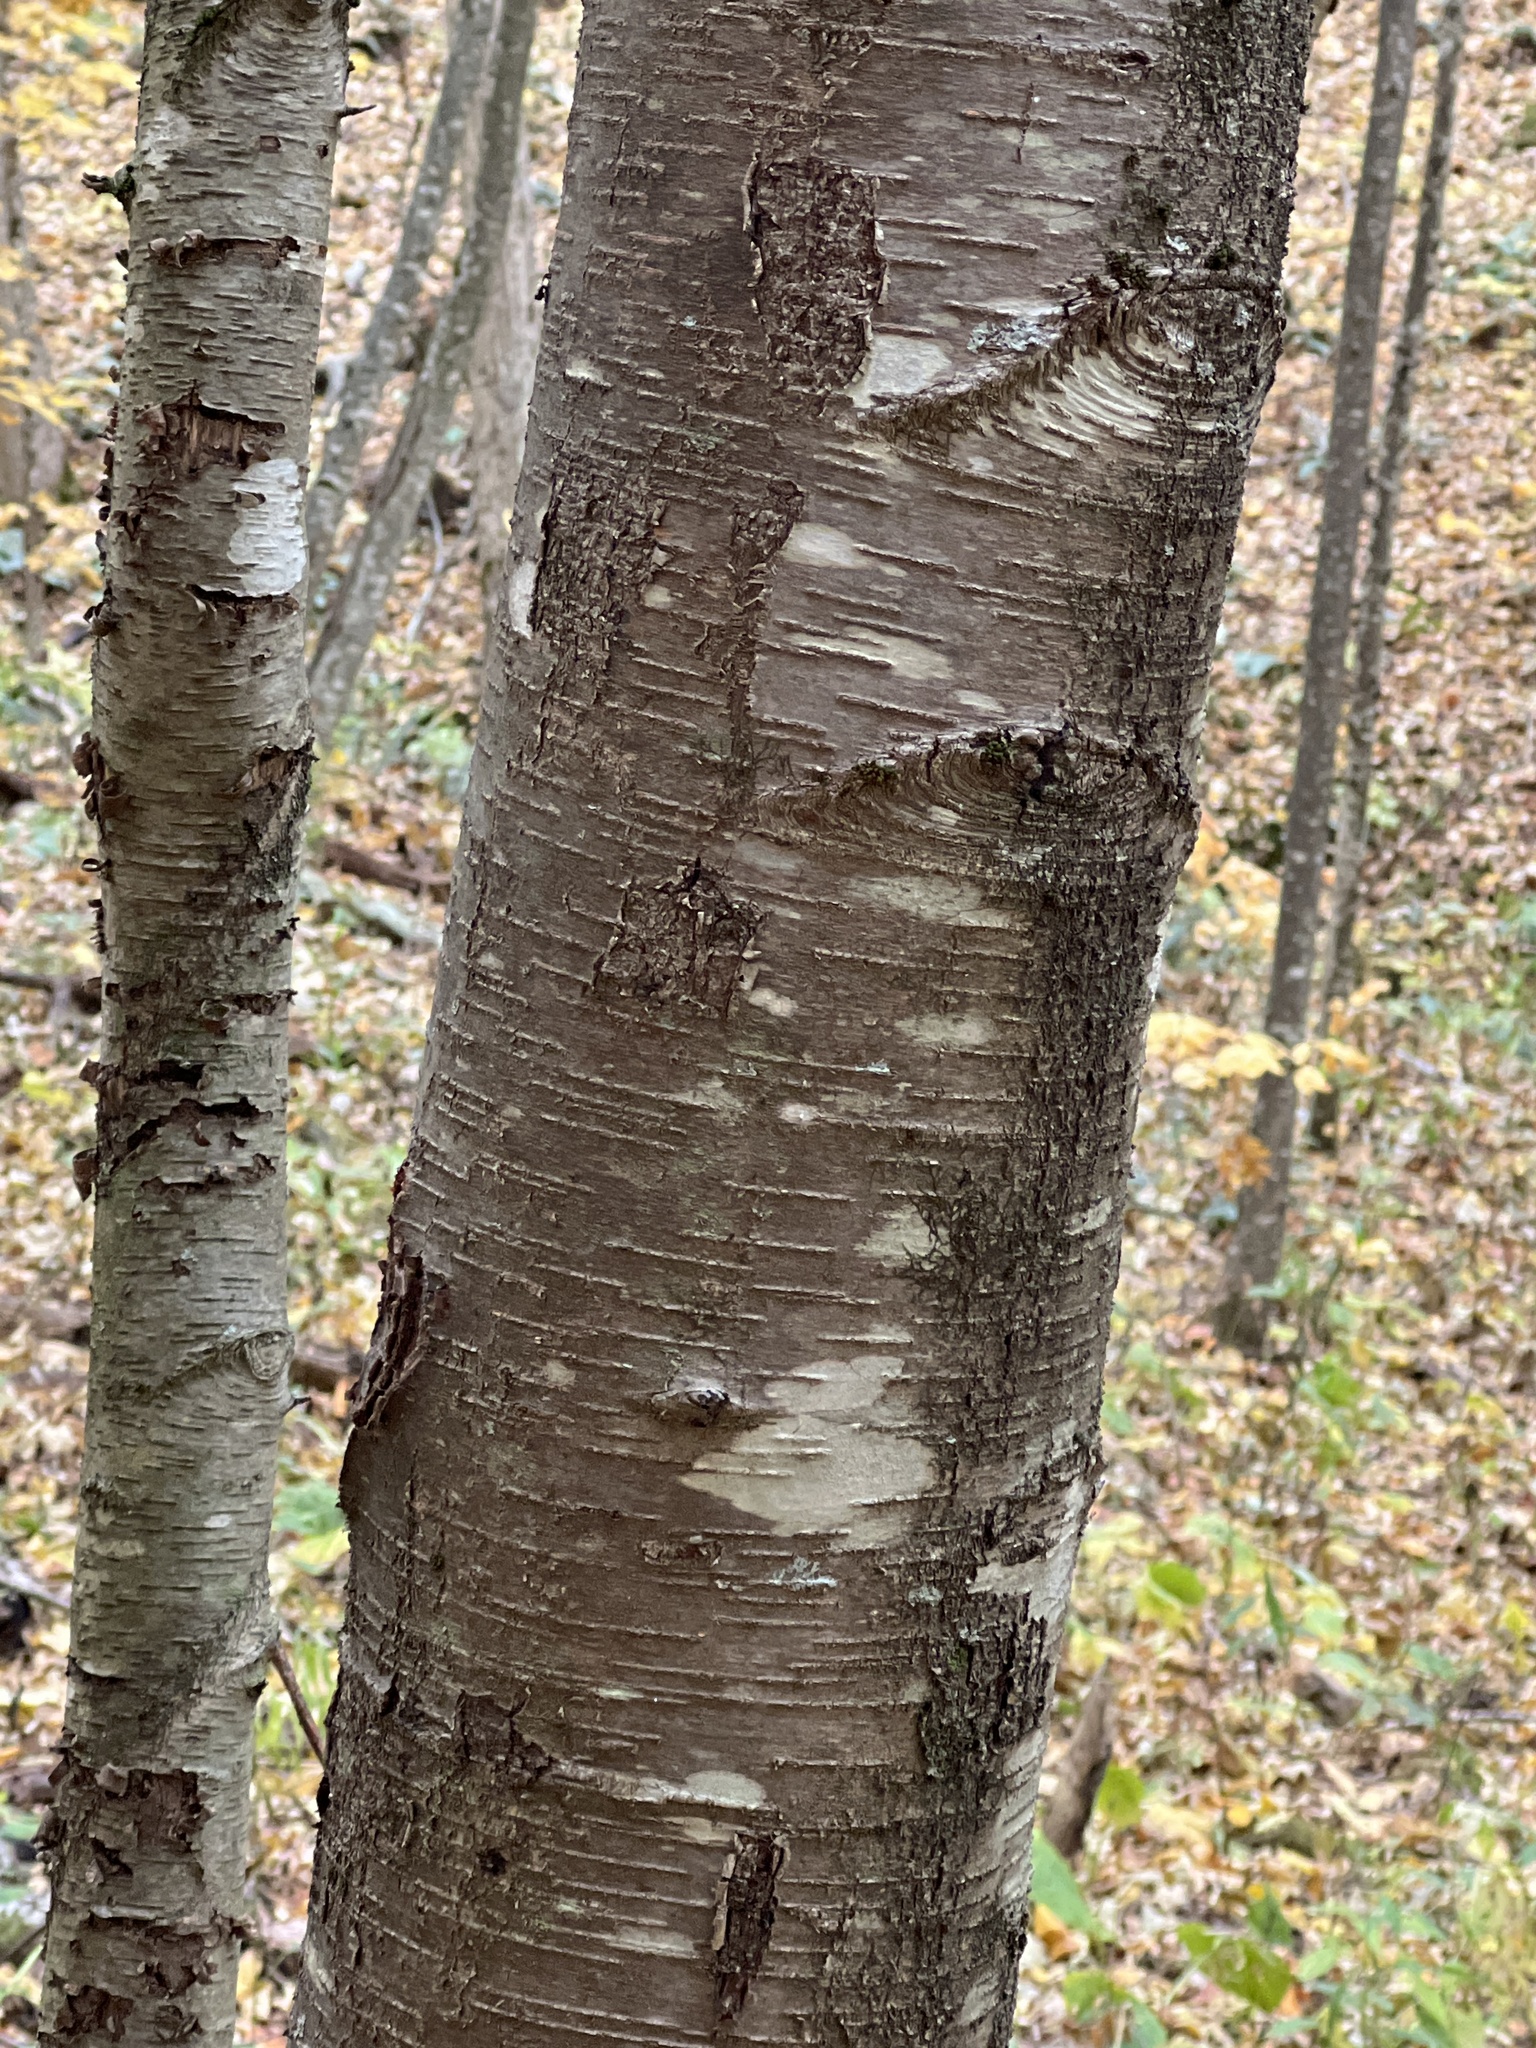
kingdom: Plantae
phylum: Tracheophyta
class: Magnoliopsida
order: Fagales
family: Betulaceae
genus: Betula
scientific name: Betula lenta
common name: Black birch
